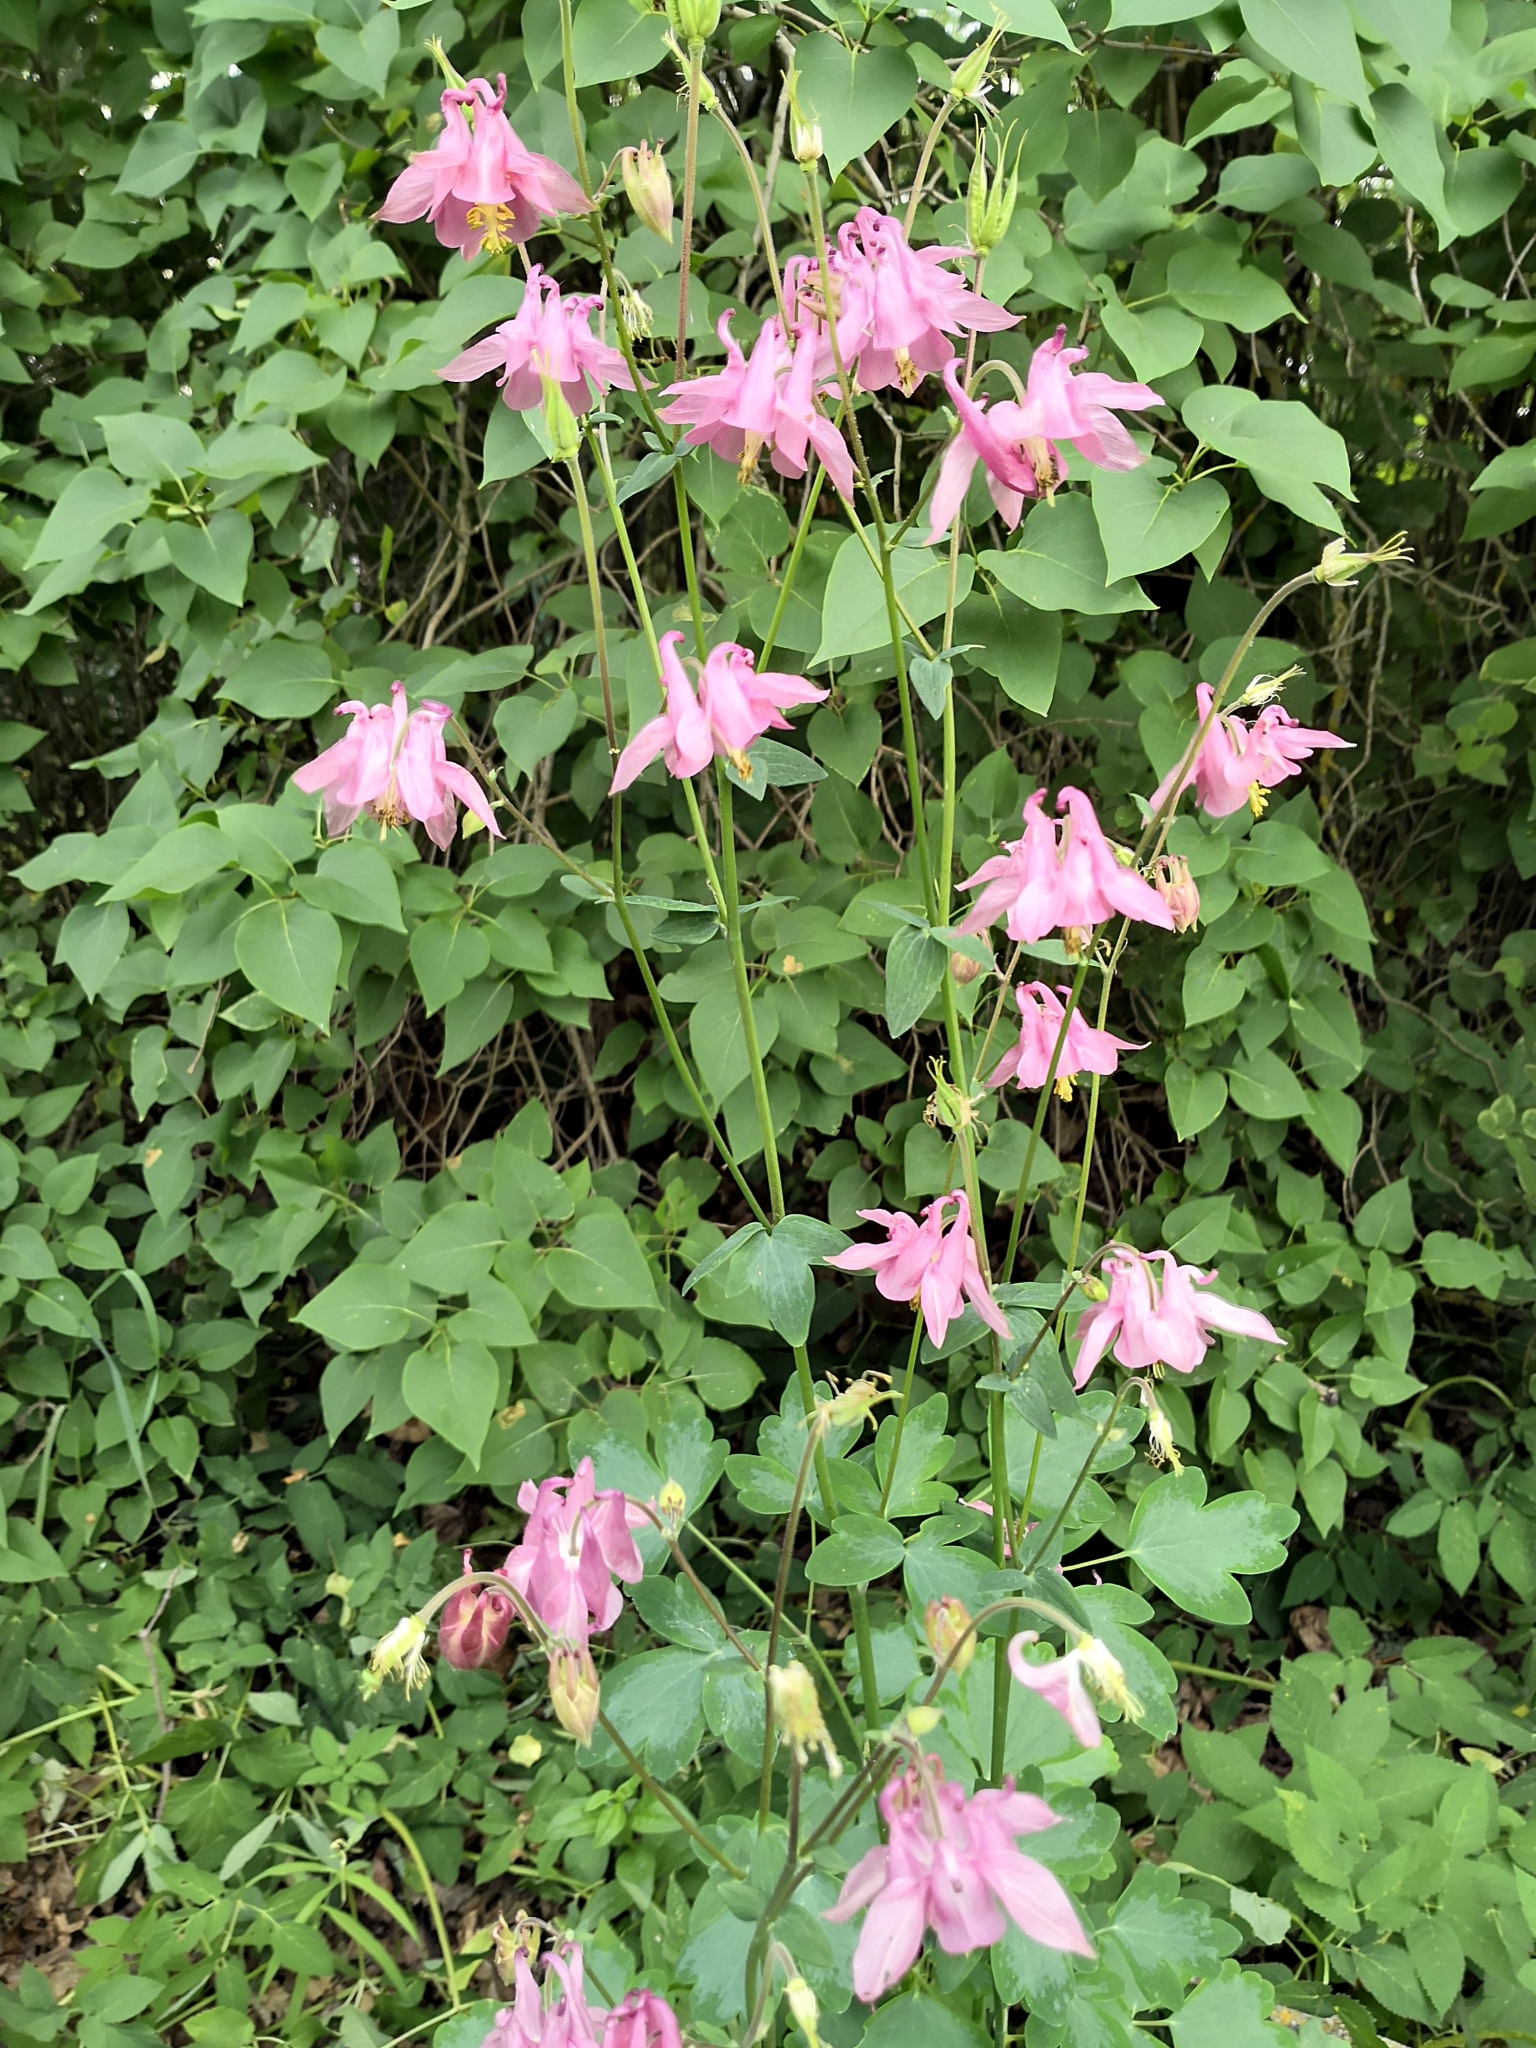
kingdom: Plantae
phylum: Tracheophyta
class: Magnoliopsida
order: Ranunculales
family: Ranunculaceae
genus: Aquilegia
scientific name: Aquilegia vulgaris
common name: Columbine
